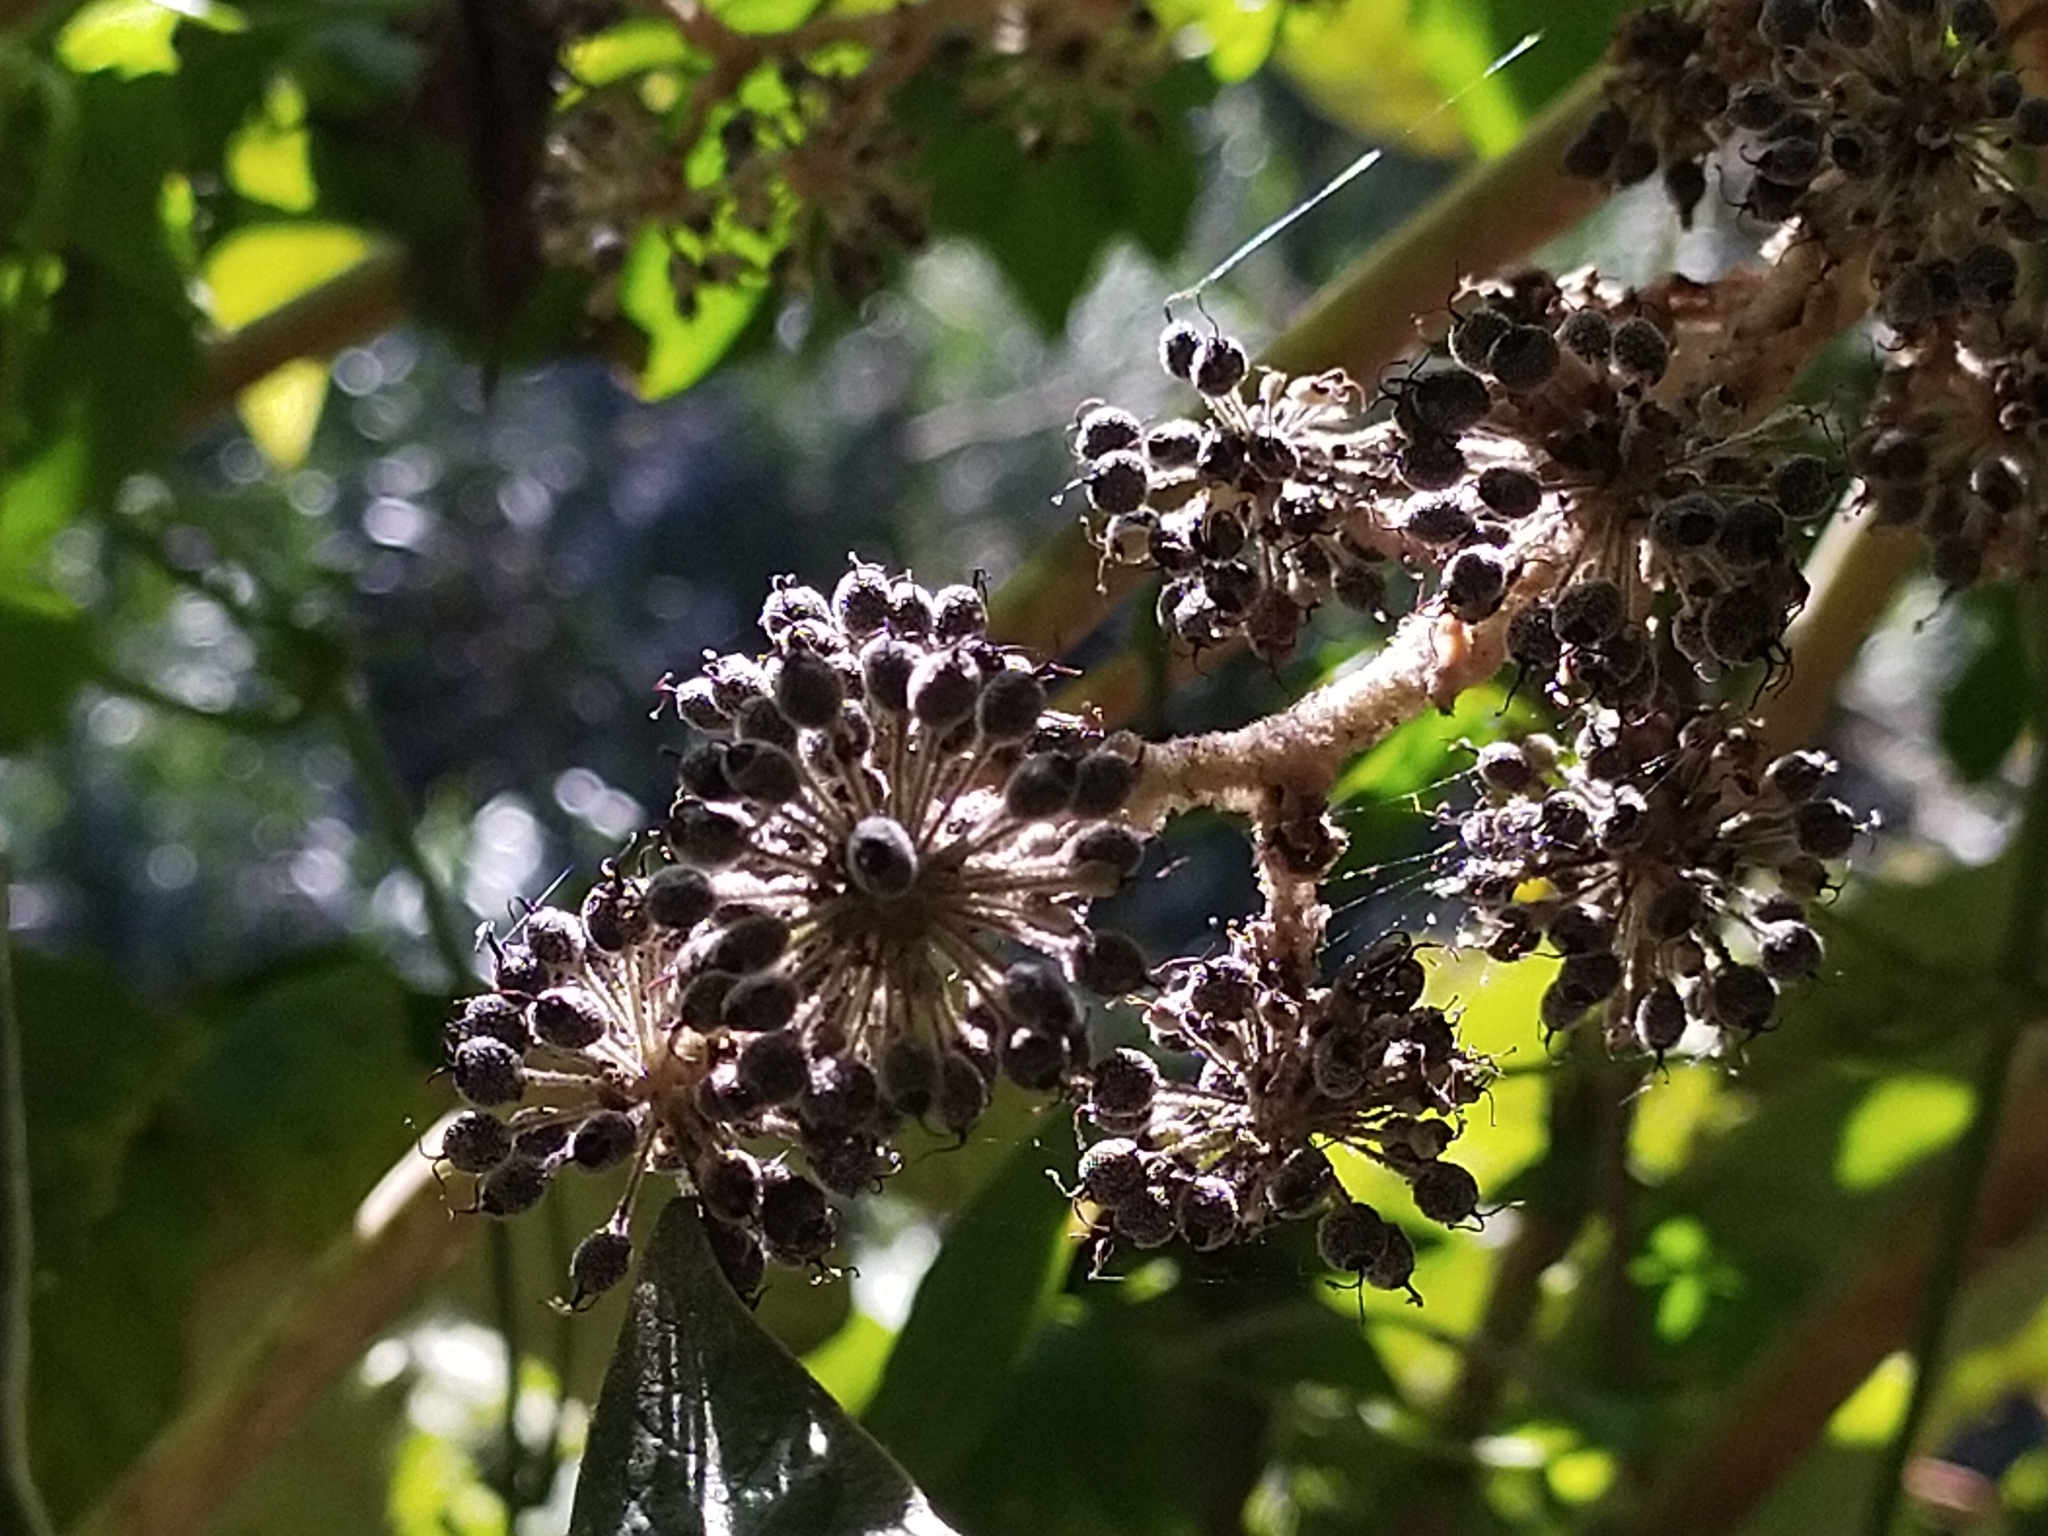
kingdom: Plantae
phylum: Tracheophyta
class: Magnoliopsida
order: Apiales
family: Araliaceae
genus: Tetrapanax
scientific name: Tetrapanax papyrifer
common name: Rice-paper plant
